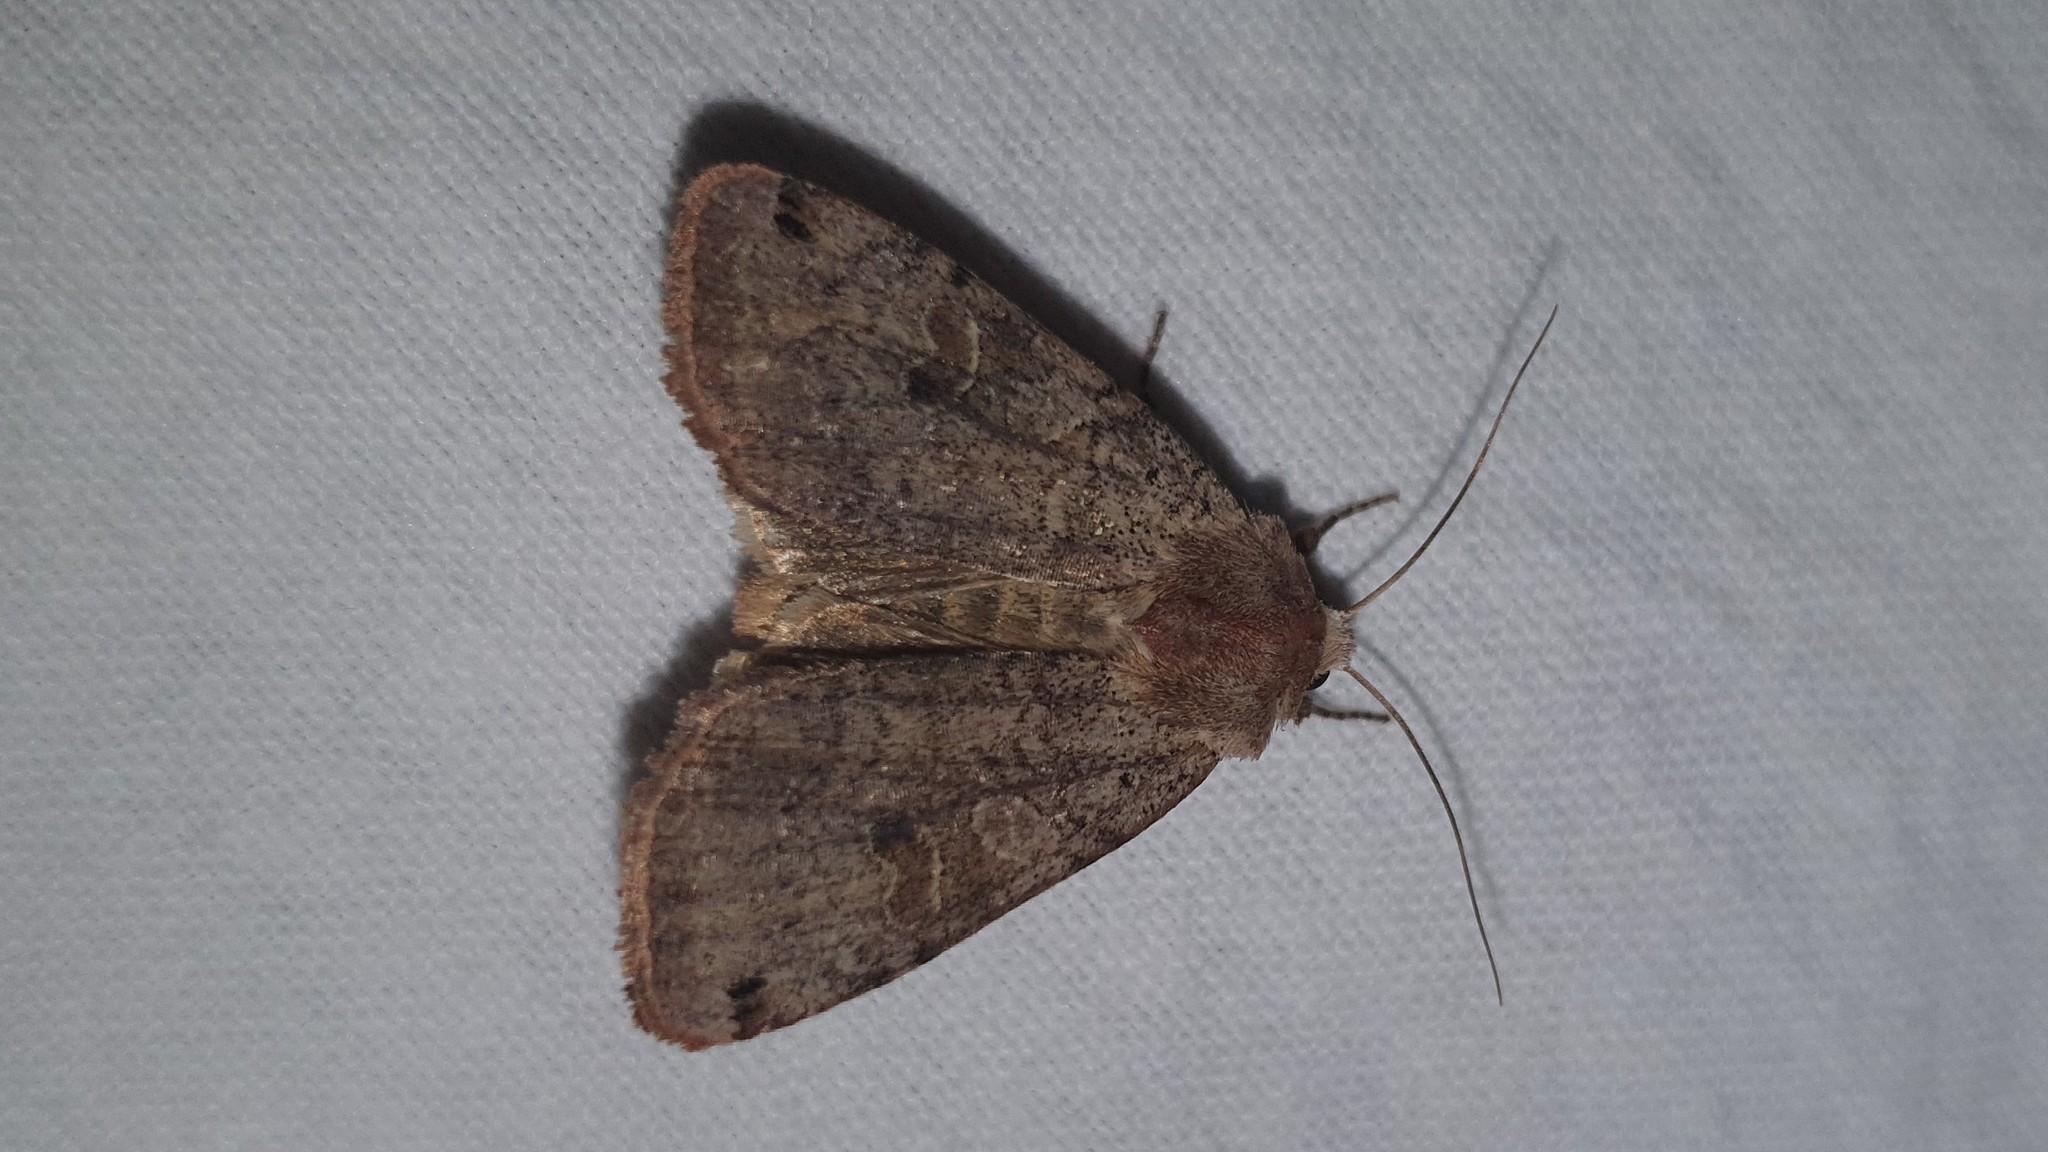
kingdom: Animalia
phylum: Arthropoda
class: Insecta
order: Lepidoptera
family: Noctuidae
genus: Xestia
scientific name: Xestia baja
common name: Dotted clay
